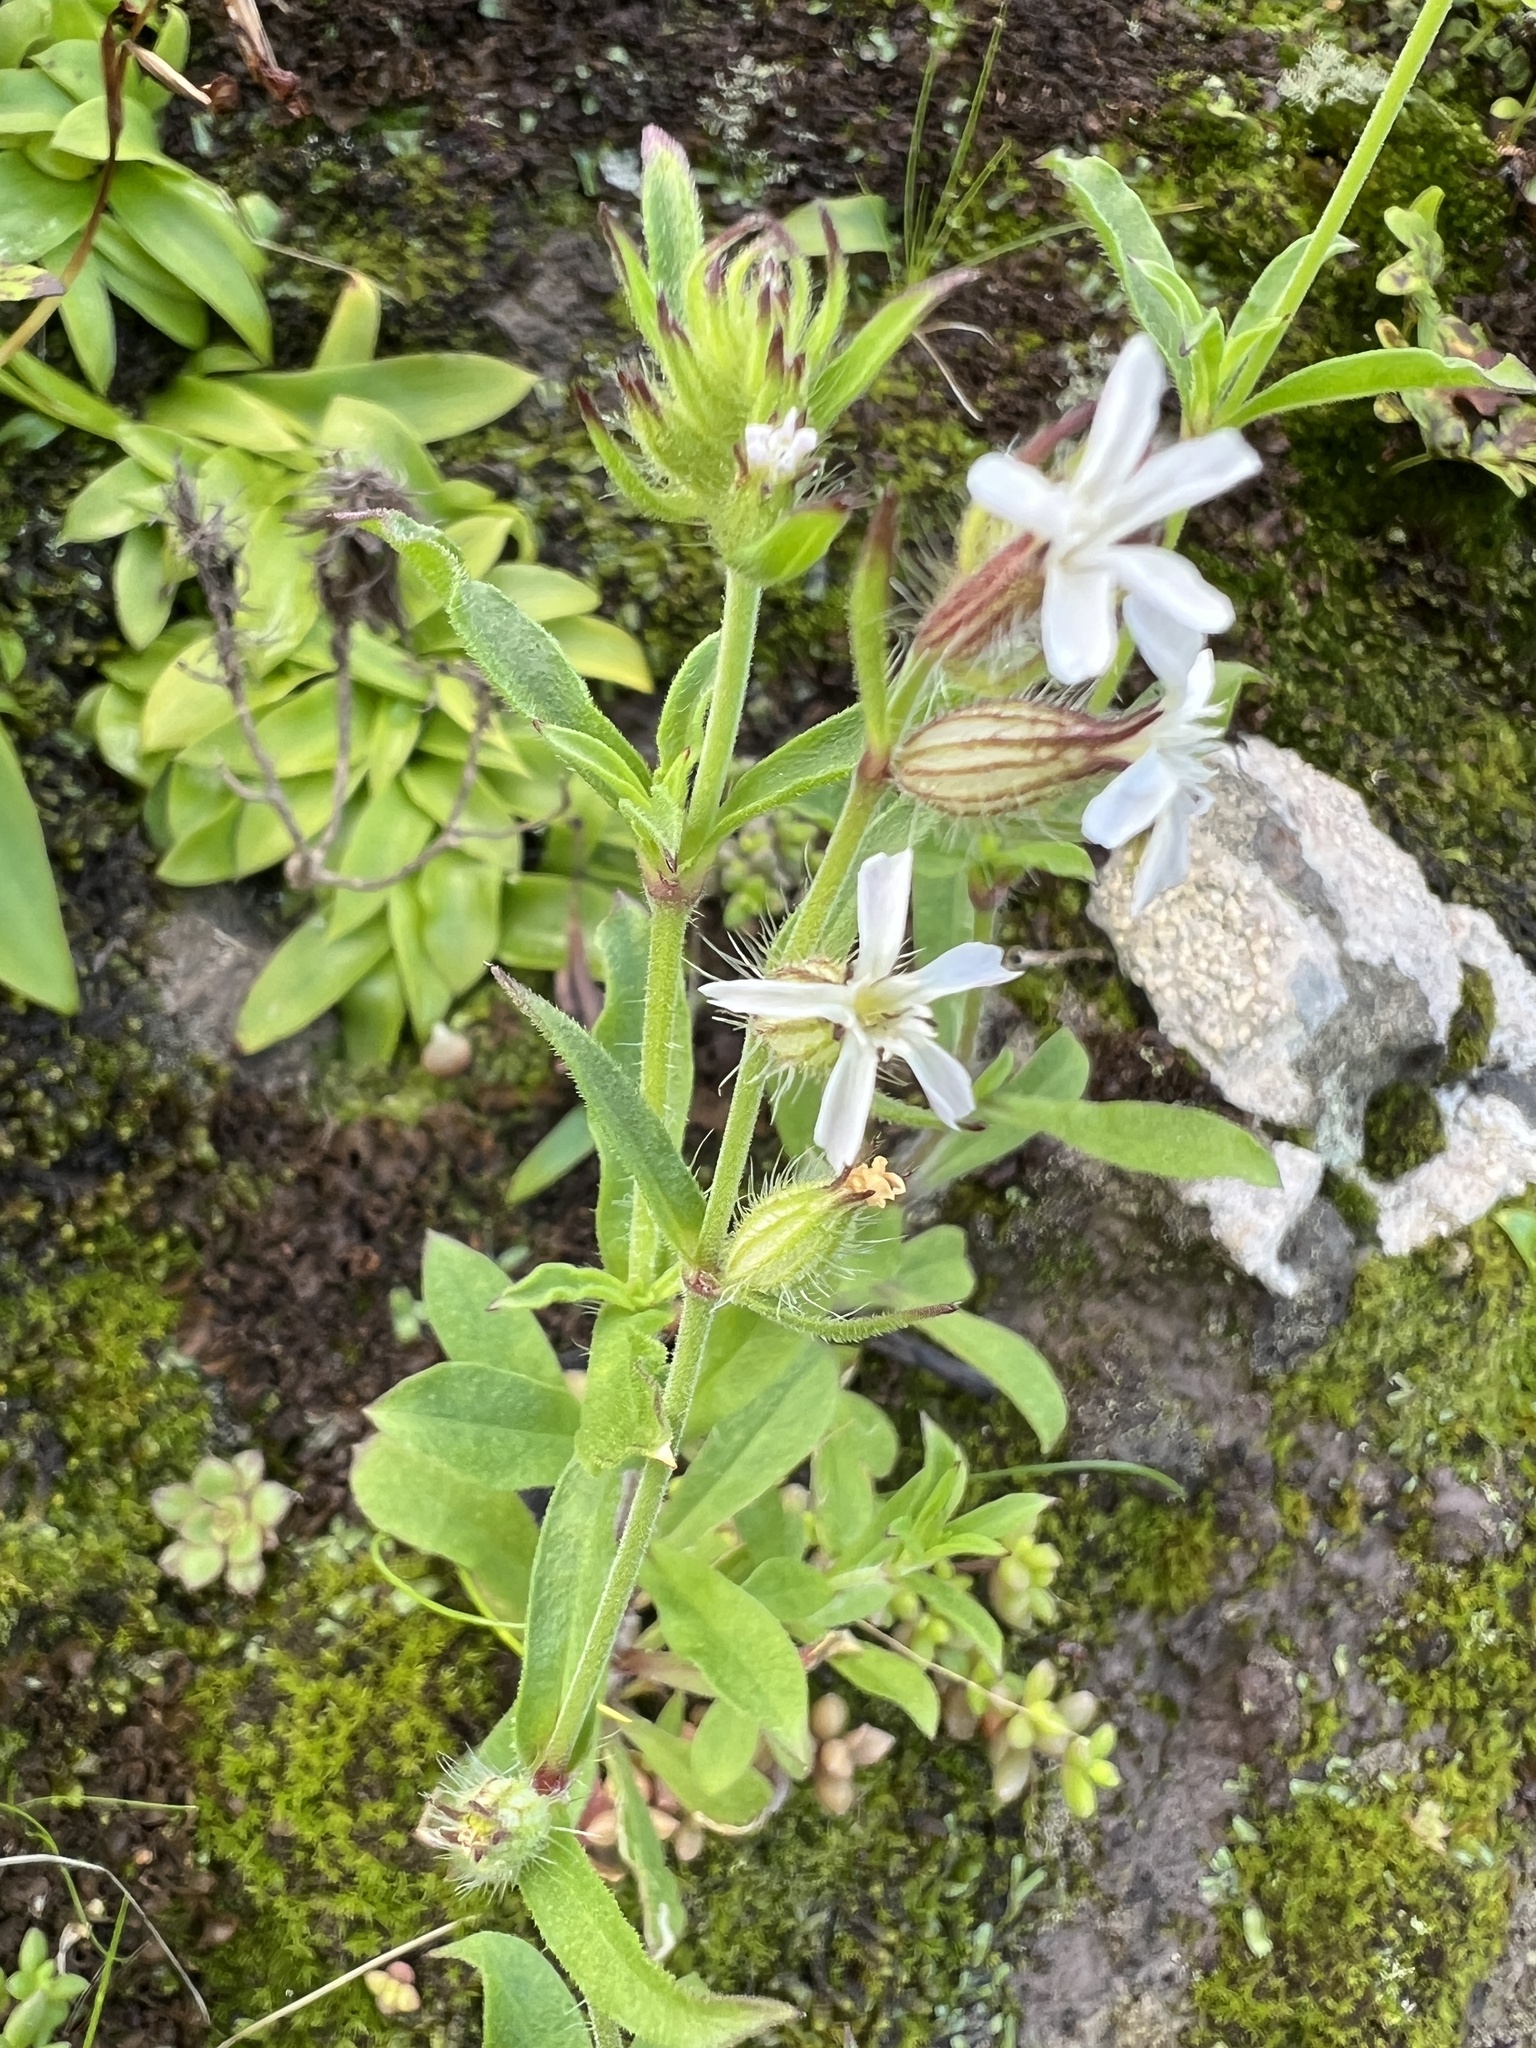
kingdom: Plantae
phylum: Tracheophyta
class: Magnoliopsida
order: Caryophyllales
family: Caryophyllaceae
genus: Silene
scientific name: Silene gallica
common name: Small-flowered catchfly
